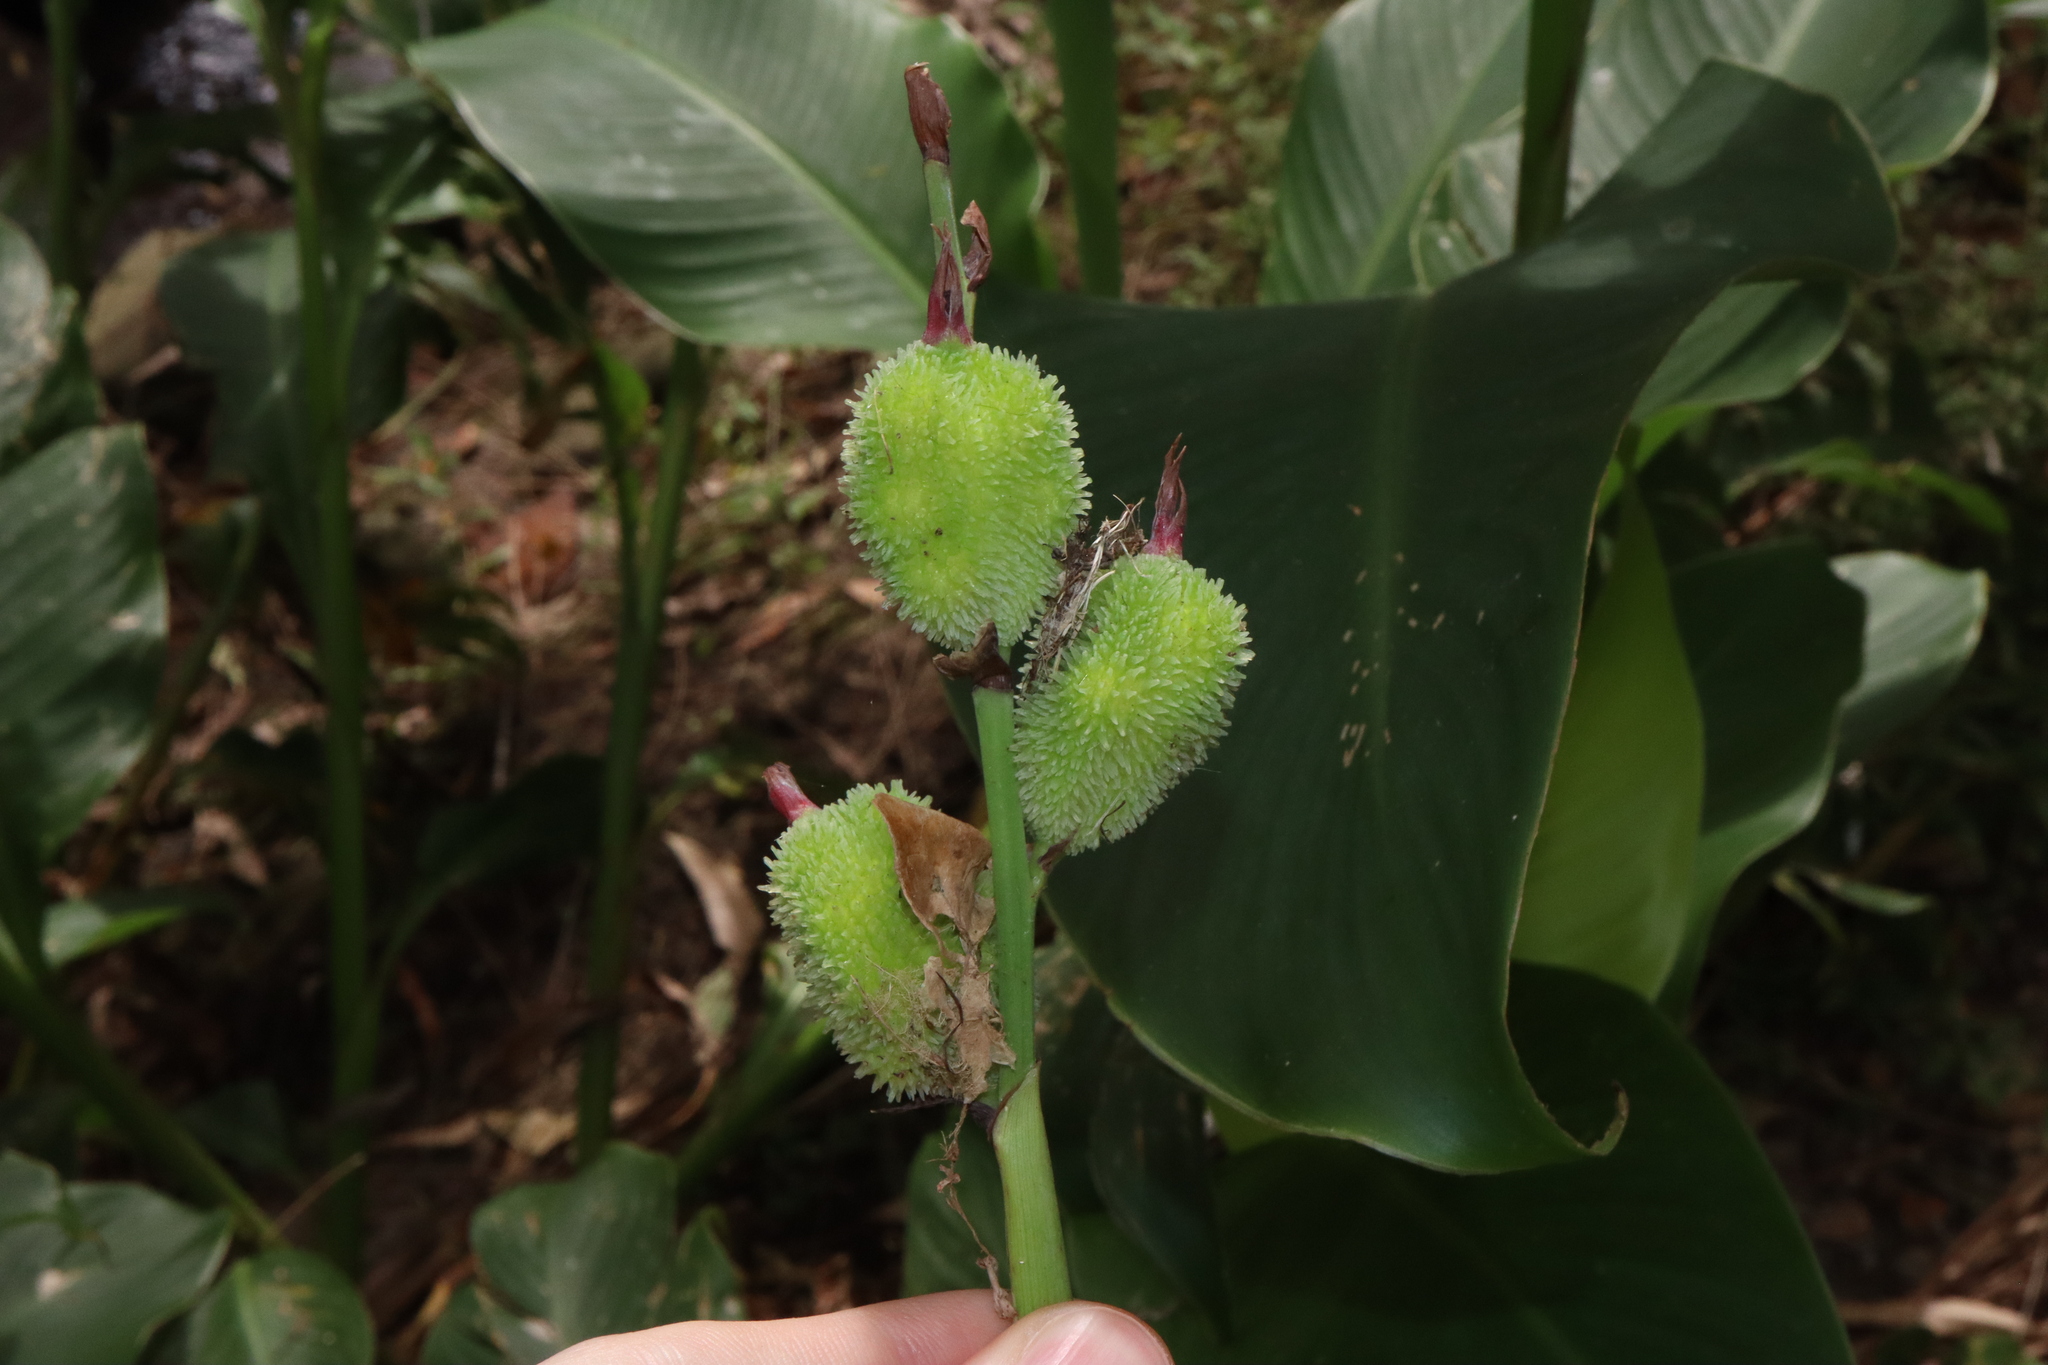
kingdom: Plantae
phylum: Tracheophyta
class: Liliopsida
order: Zingiberales
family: Cannaceae
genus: Canna
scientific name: Canna indica
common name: Indian shot
